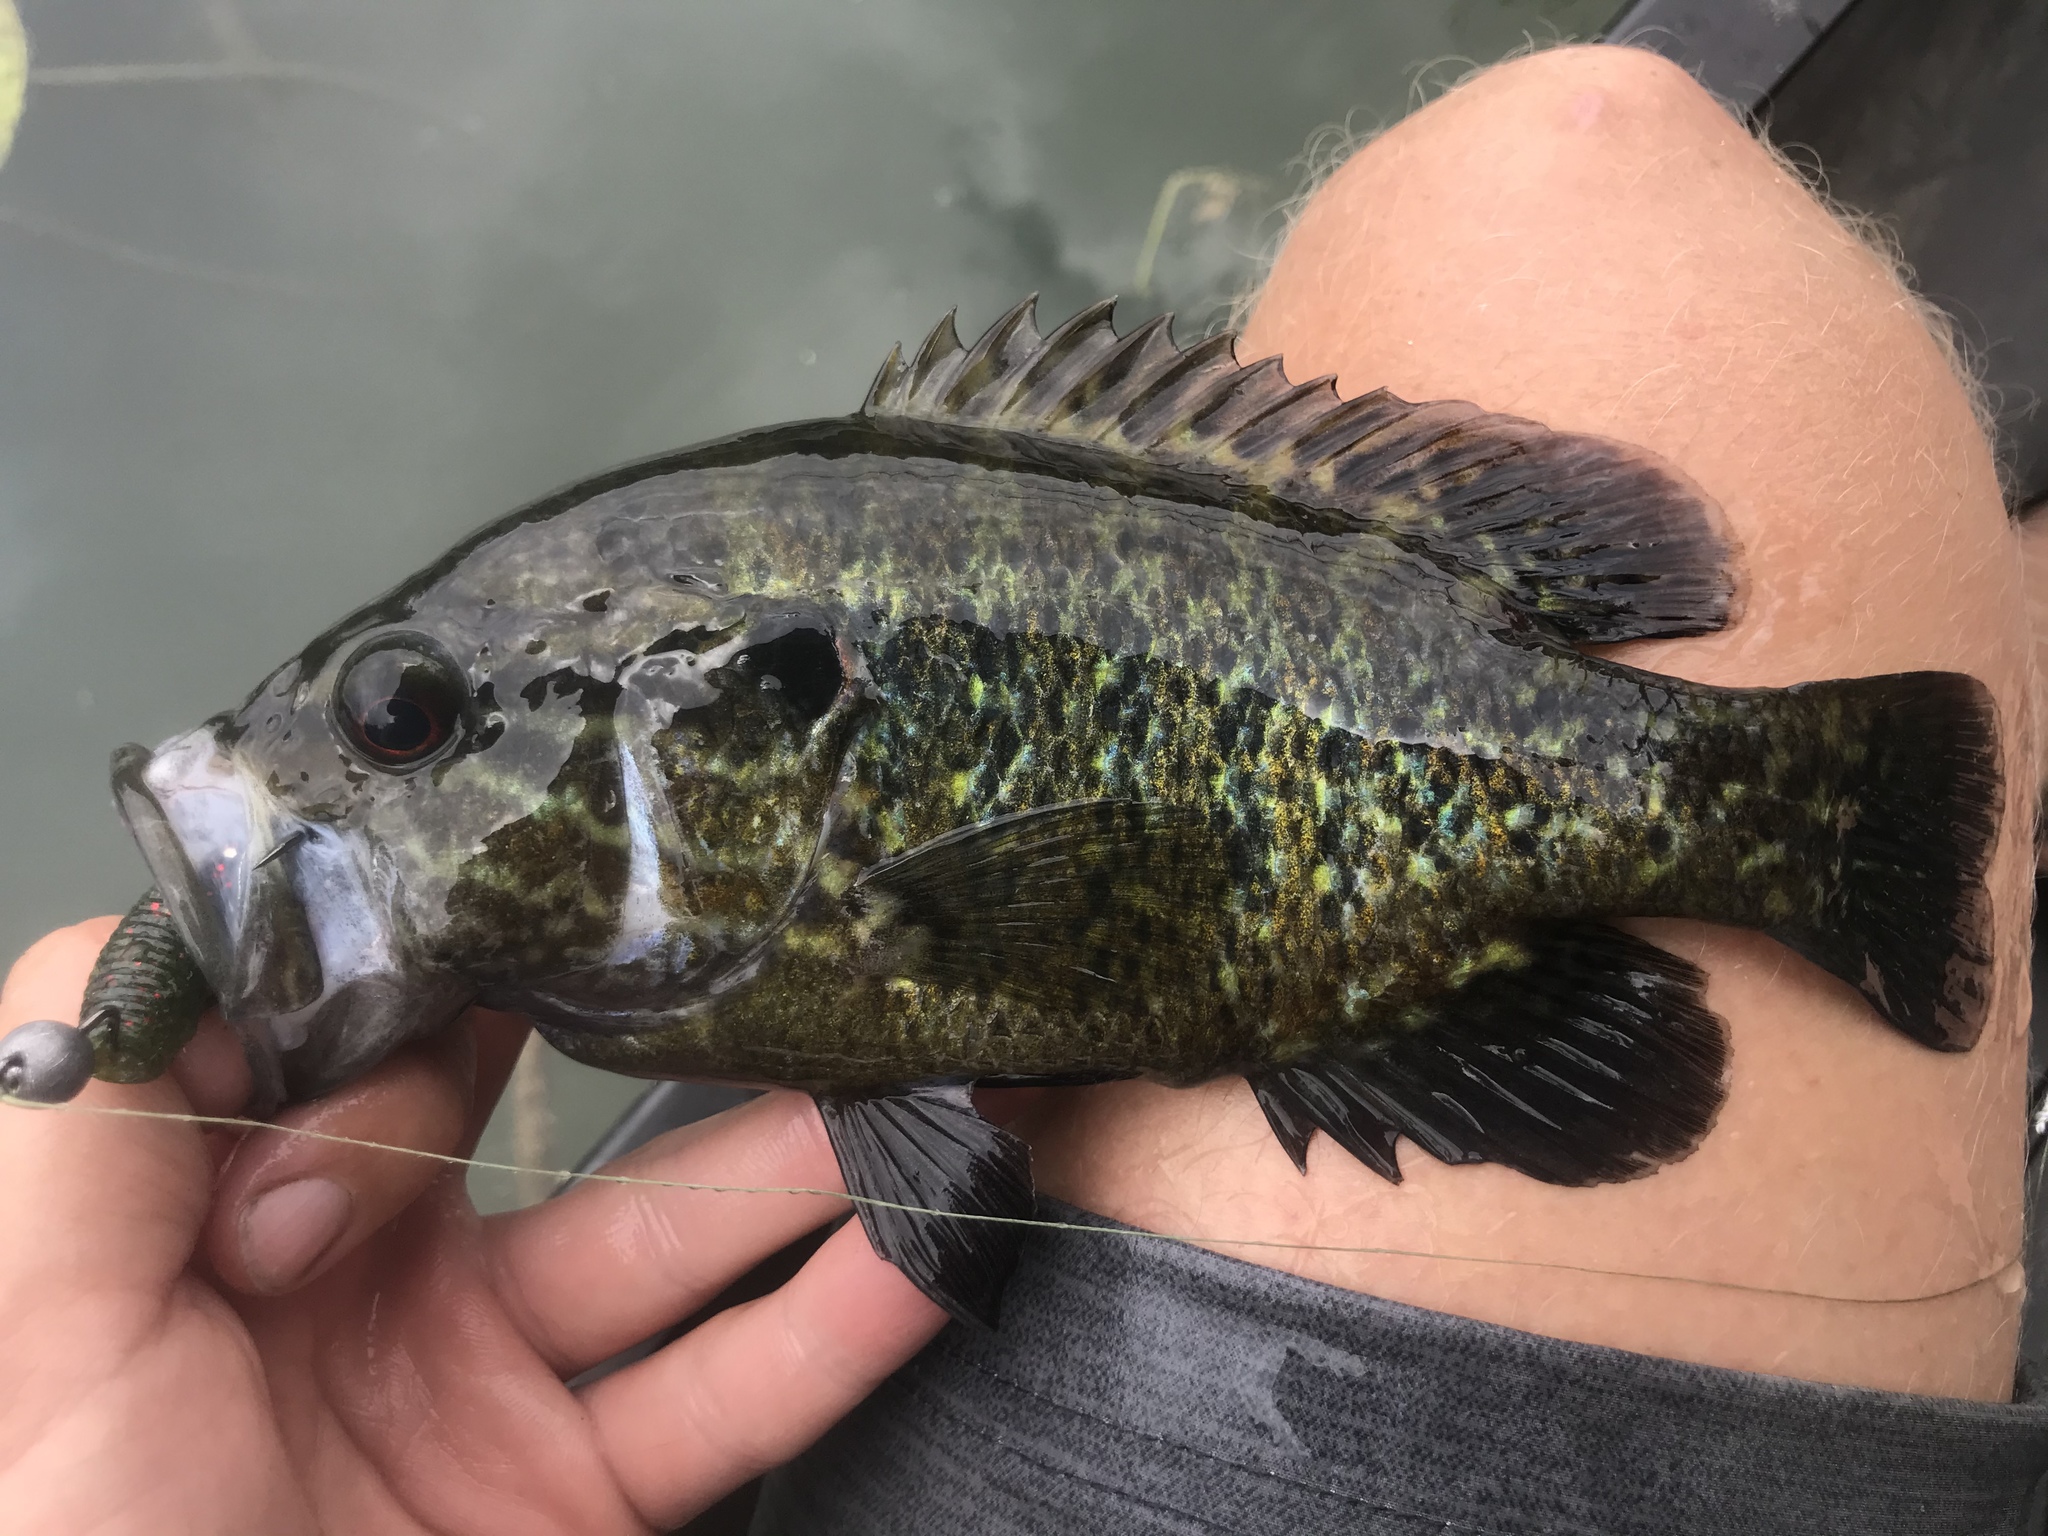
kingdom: Animalia
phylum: Chordata
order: Perciformes
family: Centrarchidae
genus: Lepomis
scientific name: Lepomis gulosus
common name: Warmouth
